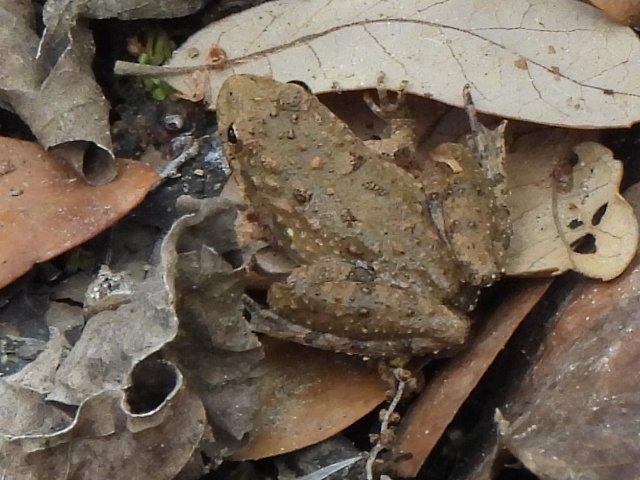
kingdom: Animalia
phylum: Chordata
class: Amphibia
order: Anura
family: Hylidae
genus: Acris
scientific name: Acris blanchardi
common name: Blanchard's cricket frog
